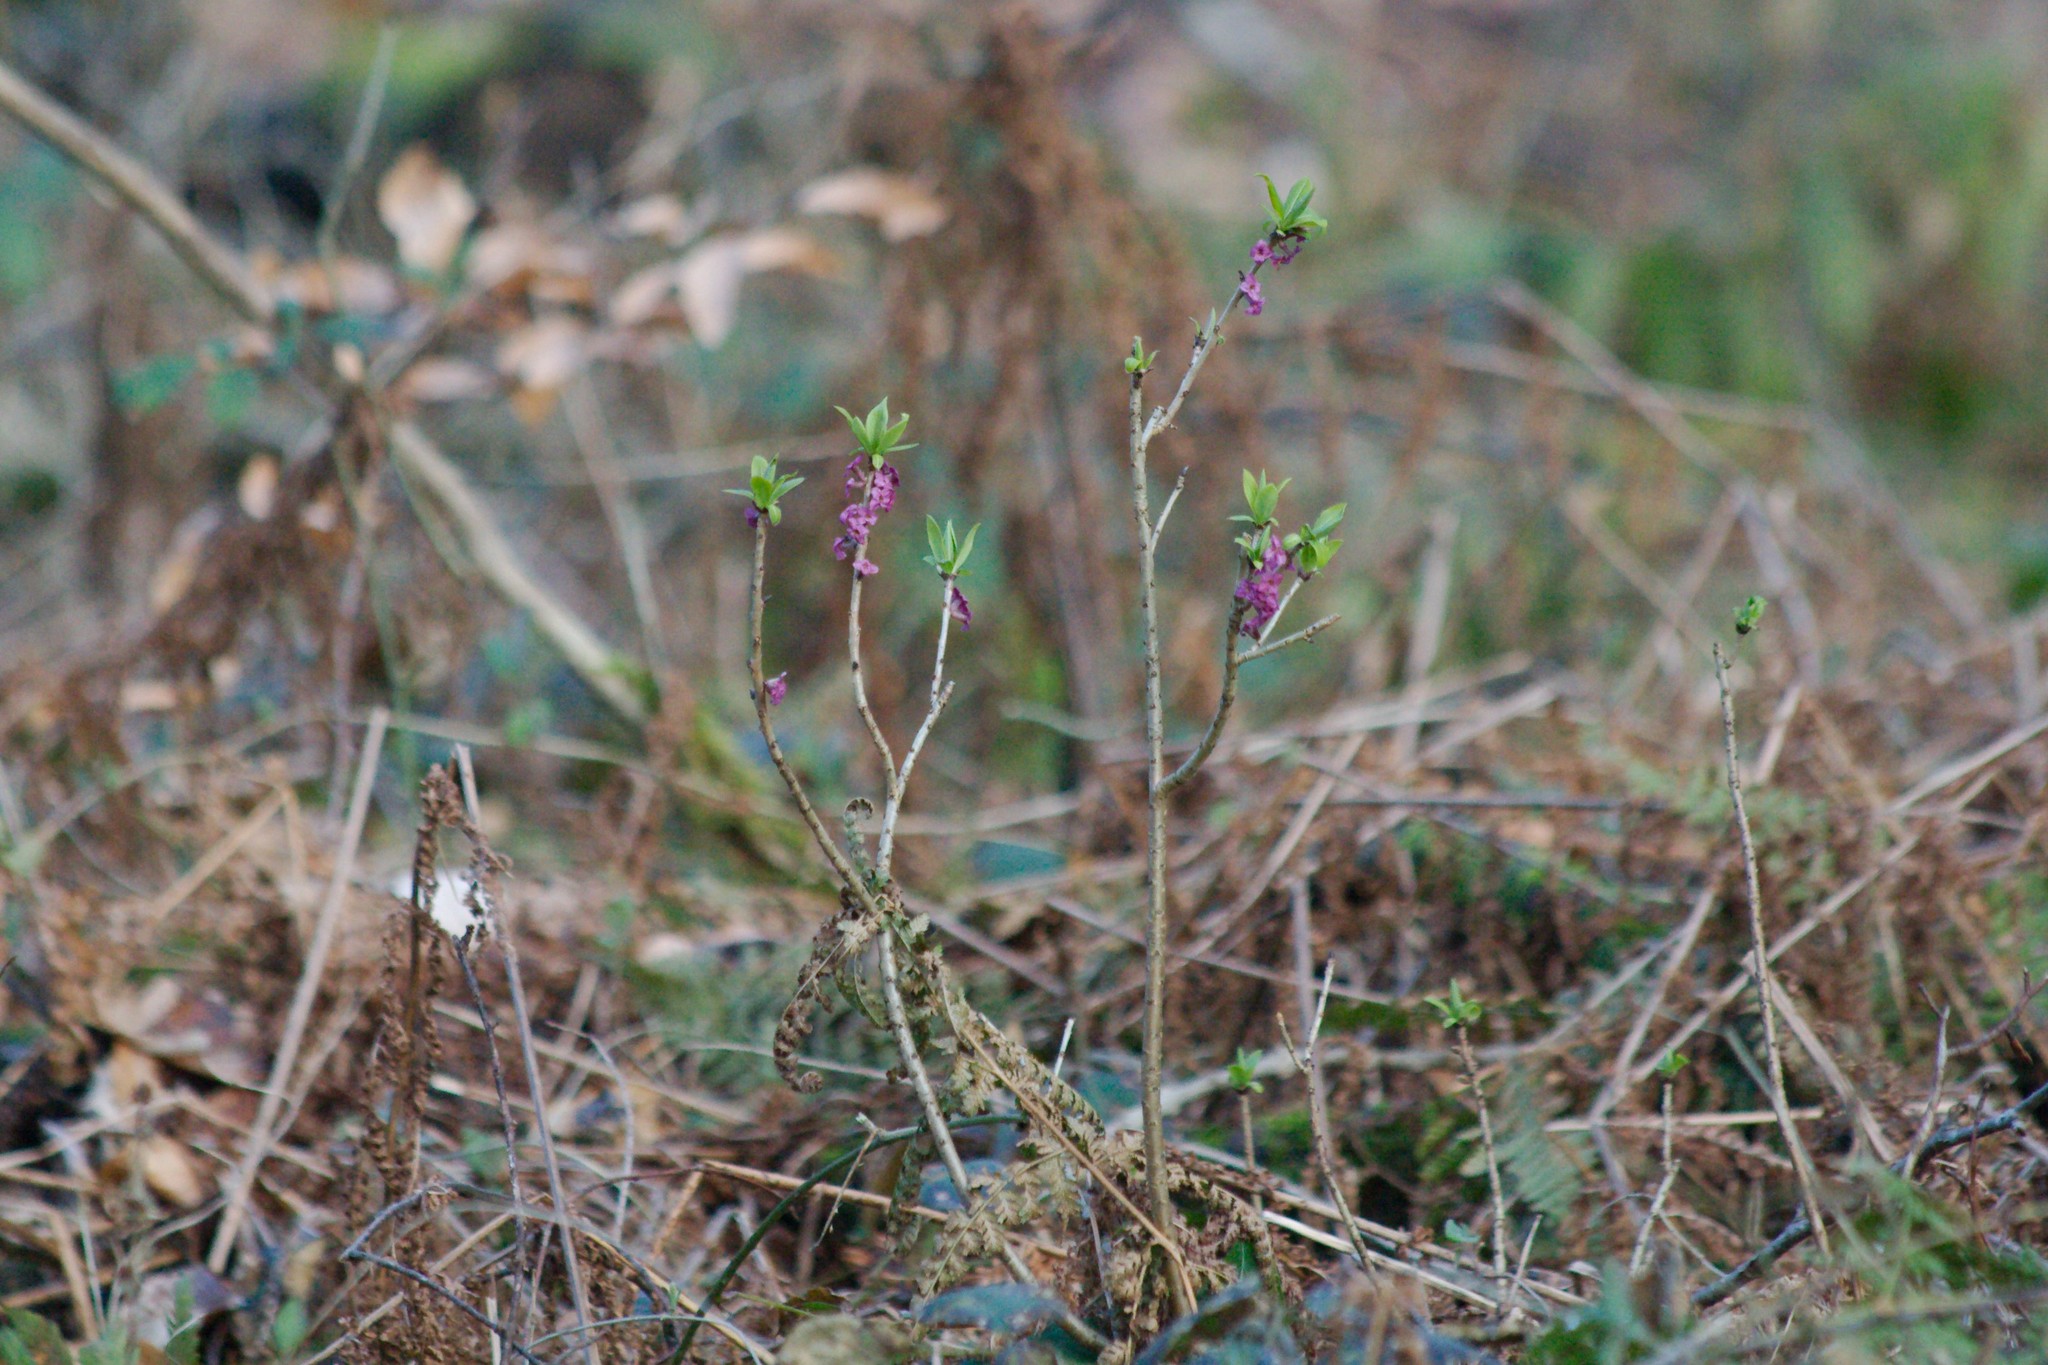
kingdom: Plantae
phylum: Tracheophyta
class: Magnoliopsida
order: Malvales
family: Thymelaeaceae
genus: Daphne
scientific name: Daphne mezereum
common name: Mezereon
